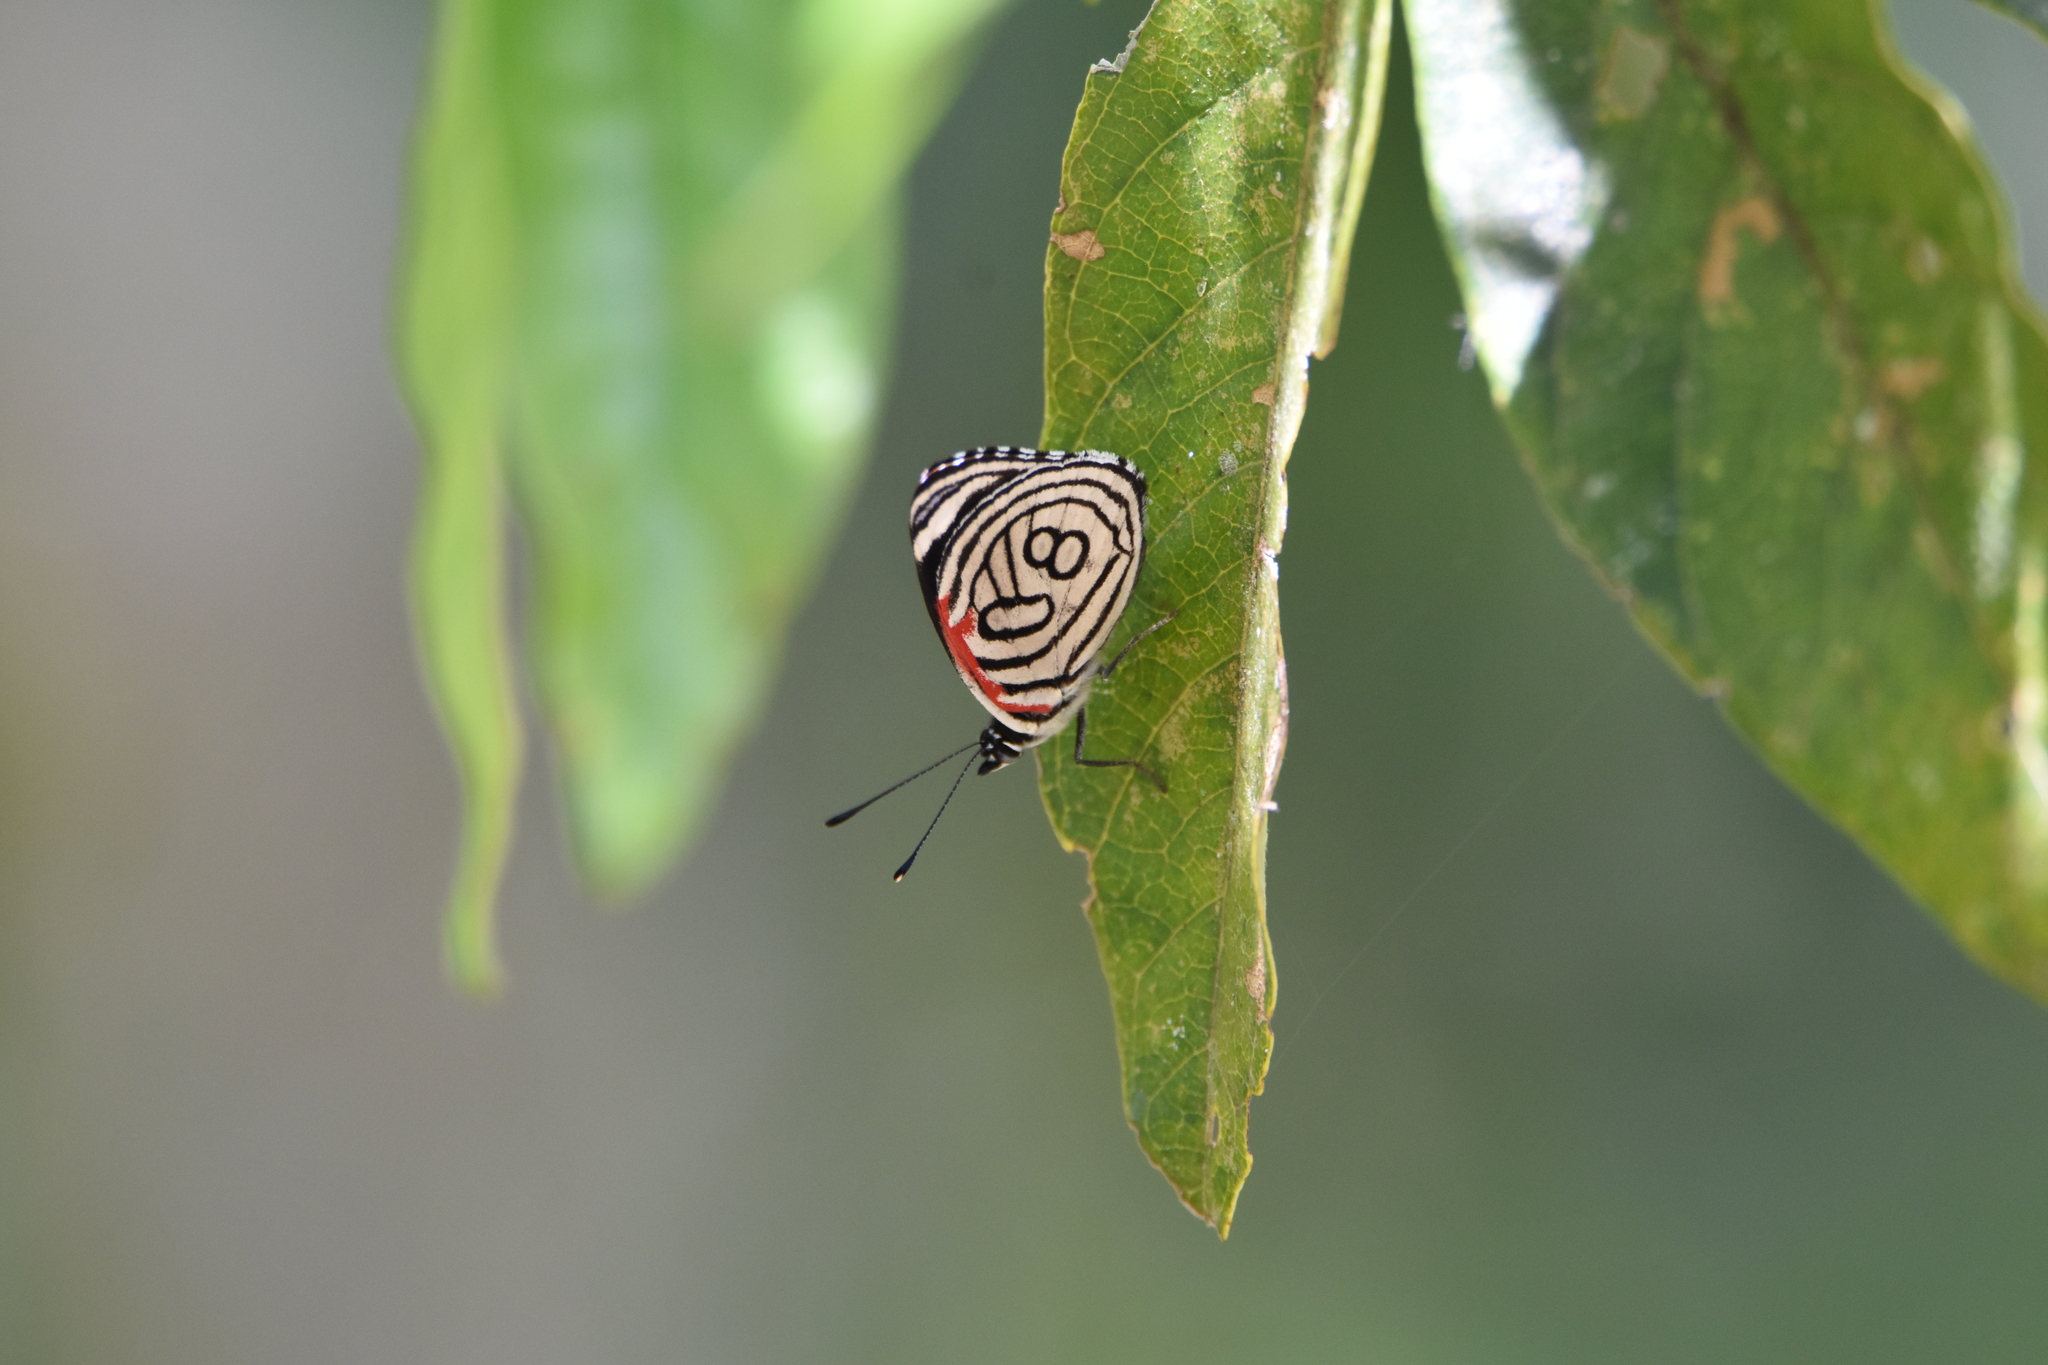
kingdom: Animalia
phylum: Arthropoda
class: Insecta
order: Lepidoptera
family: Nymphalidae
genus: Diaethria
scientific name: Diaethria candrena
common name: Number eighty
